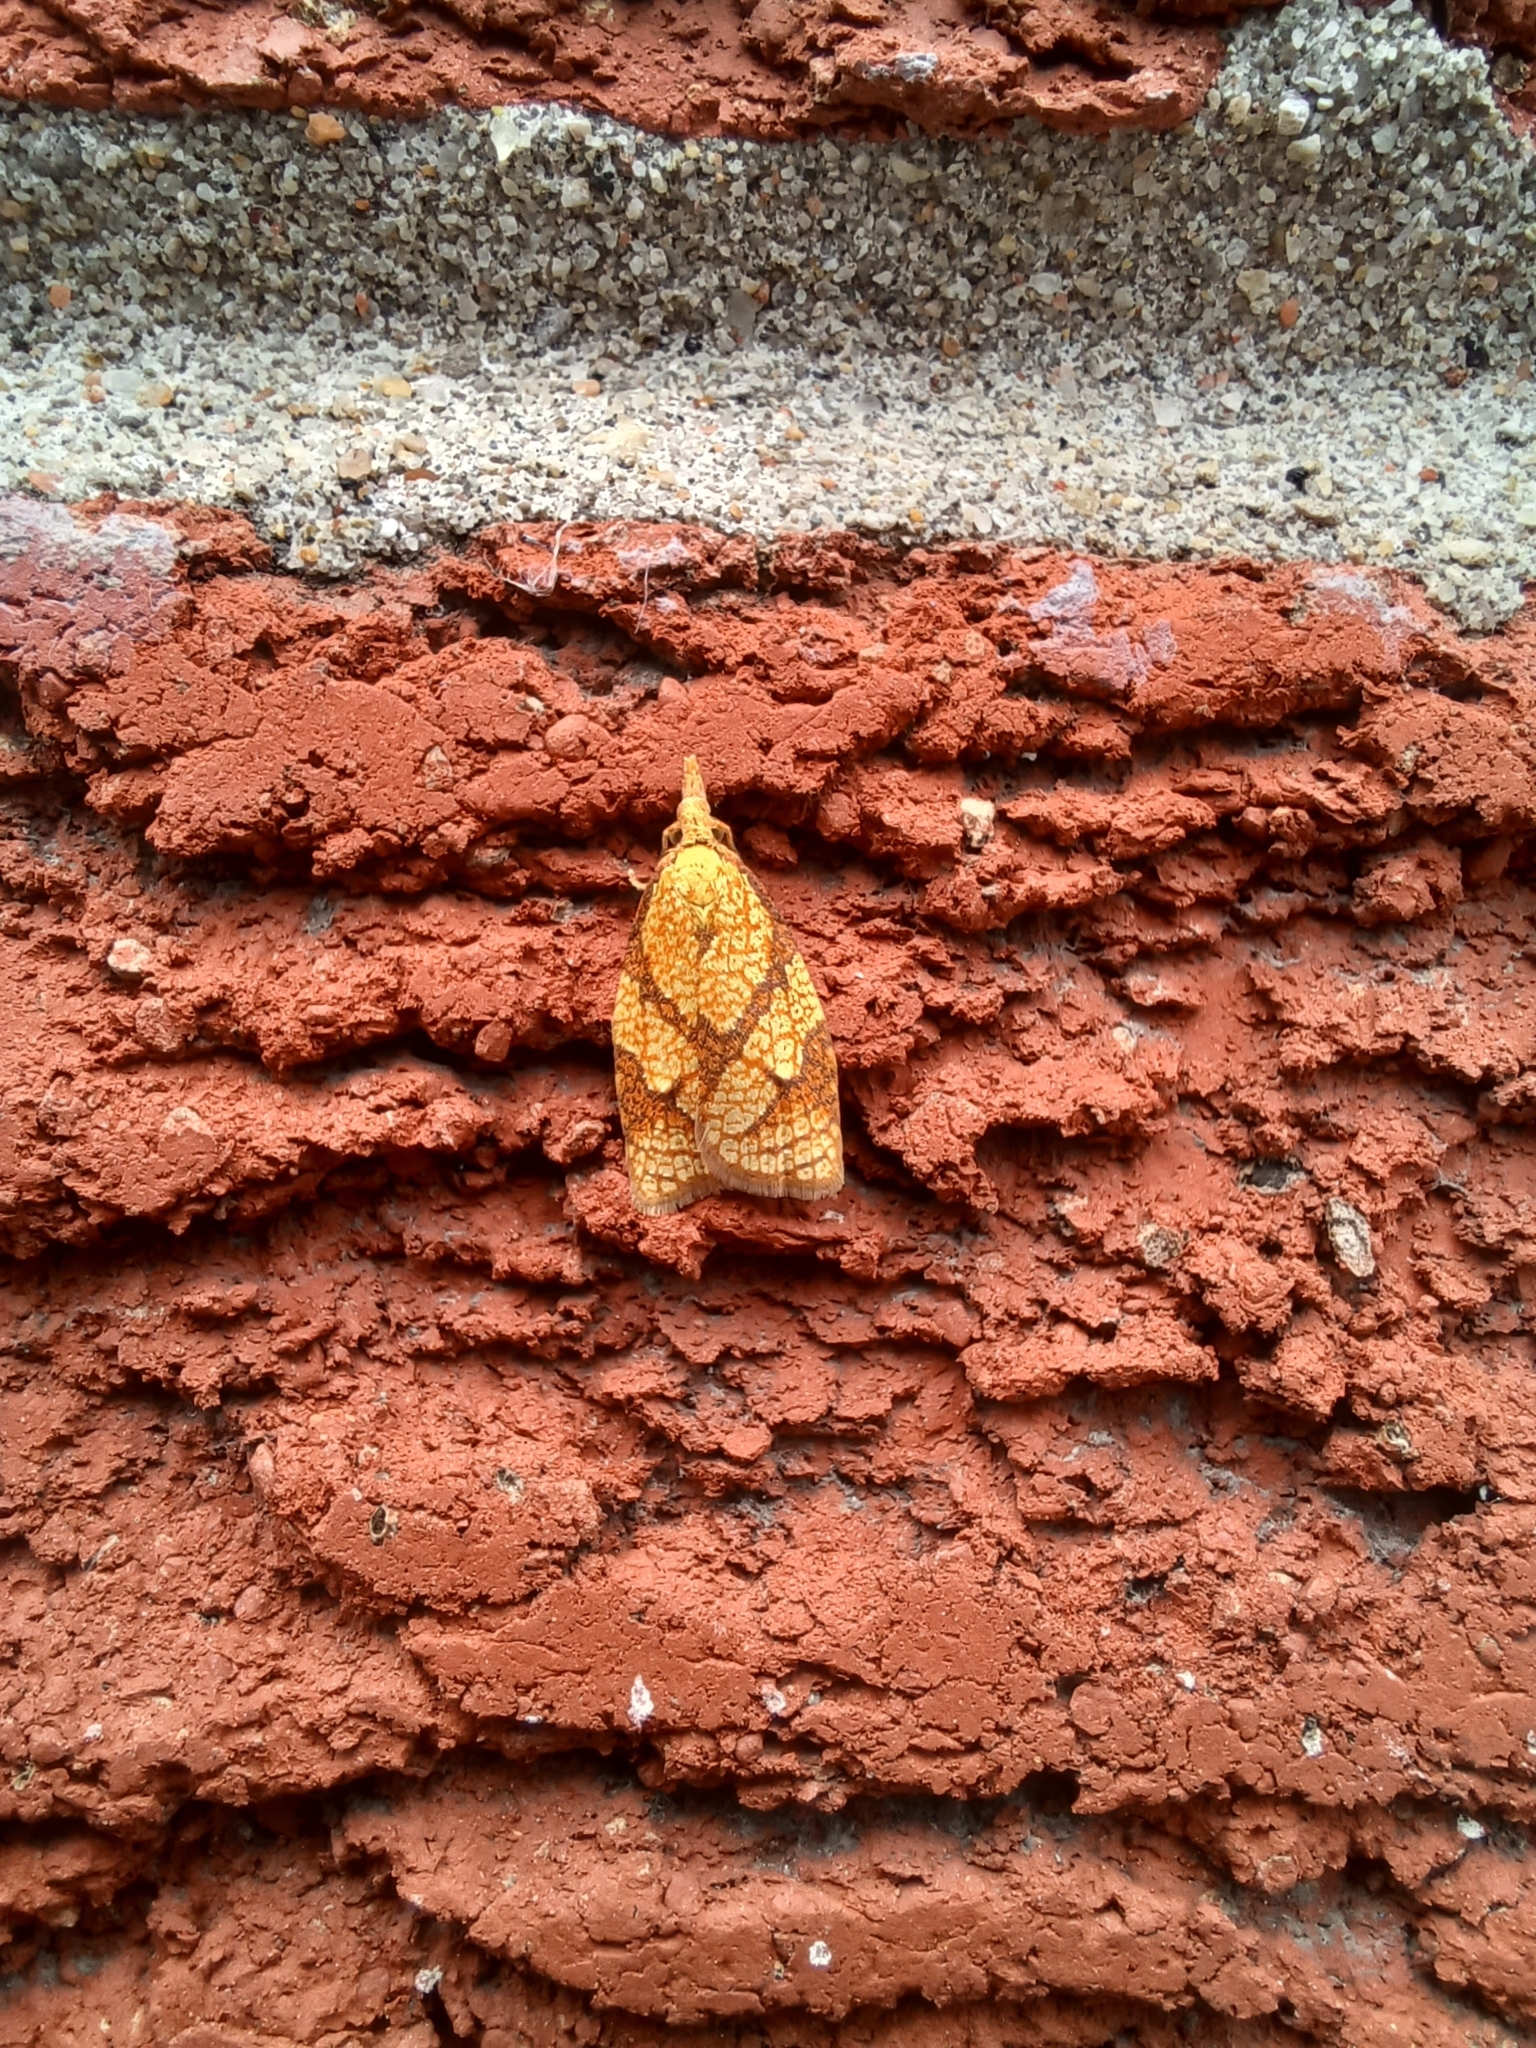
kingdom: Animalia
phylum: Arthropoda
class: Insecta
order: Lepidoptera
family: Tortricidae
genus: Cenopis
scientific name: Cenopis reticulatana
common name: Reticulated fruitworm moth
